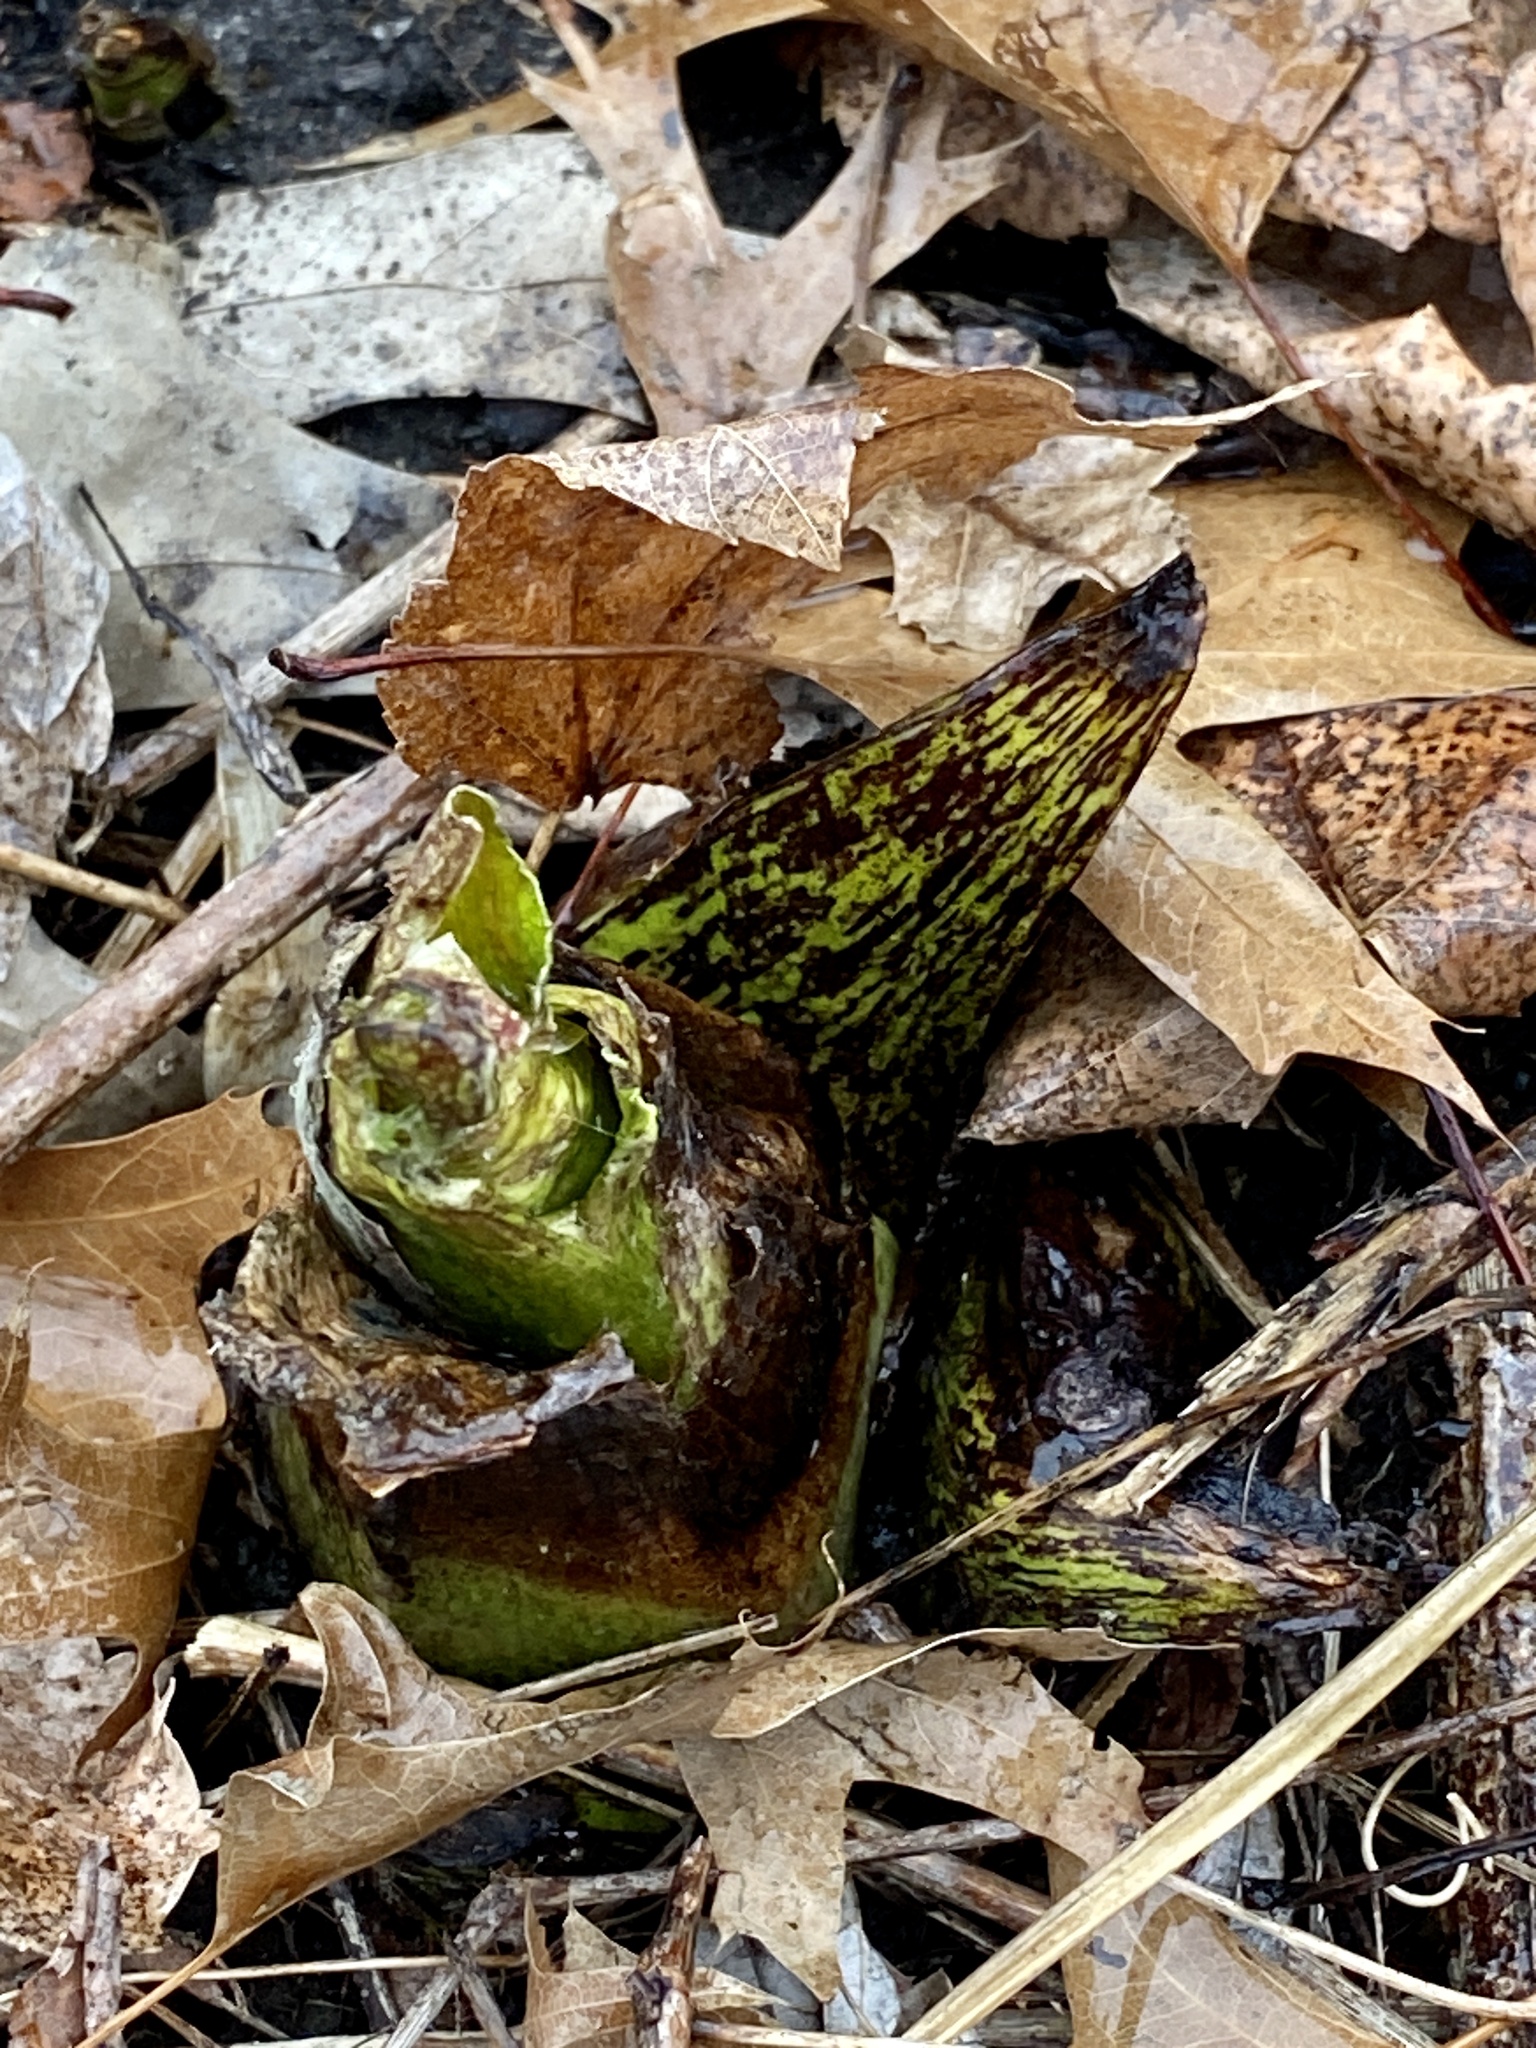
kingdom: Plantae
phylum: Tracheophyta
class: Liliopsida
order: Alismatales
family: Araceae
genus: Symplocarpus
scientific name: Symplocarpus foetidus
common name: Eastern skunk cabbage
